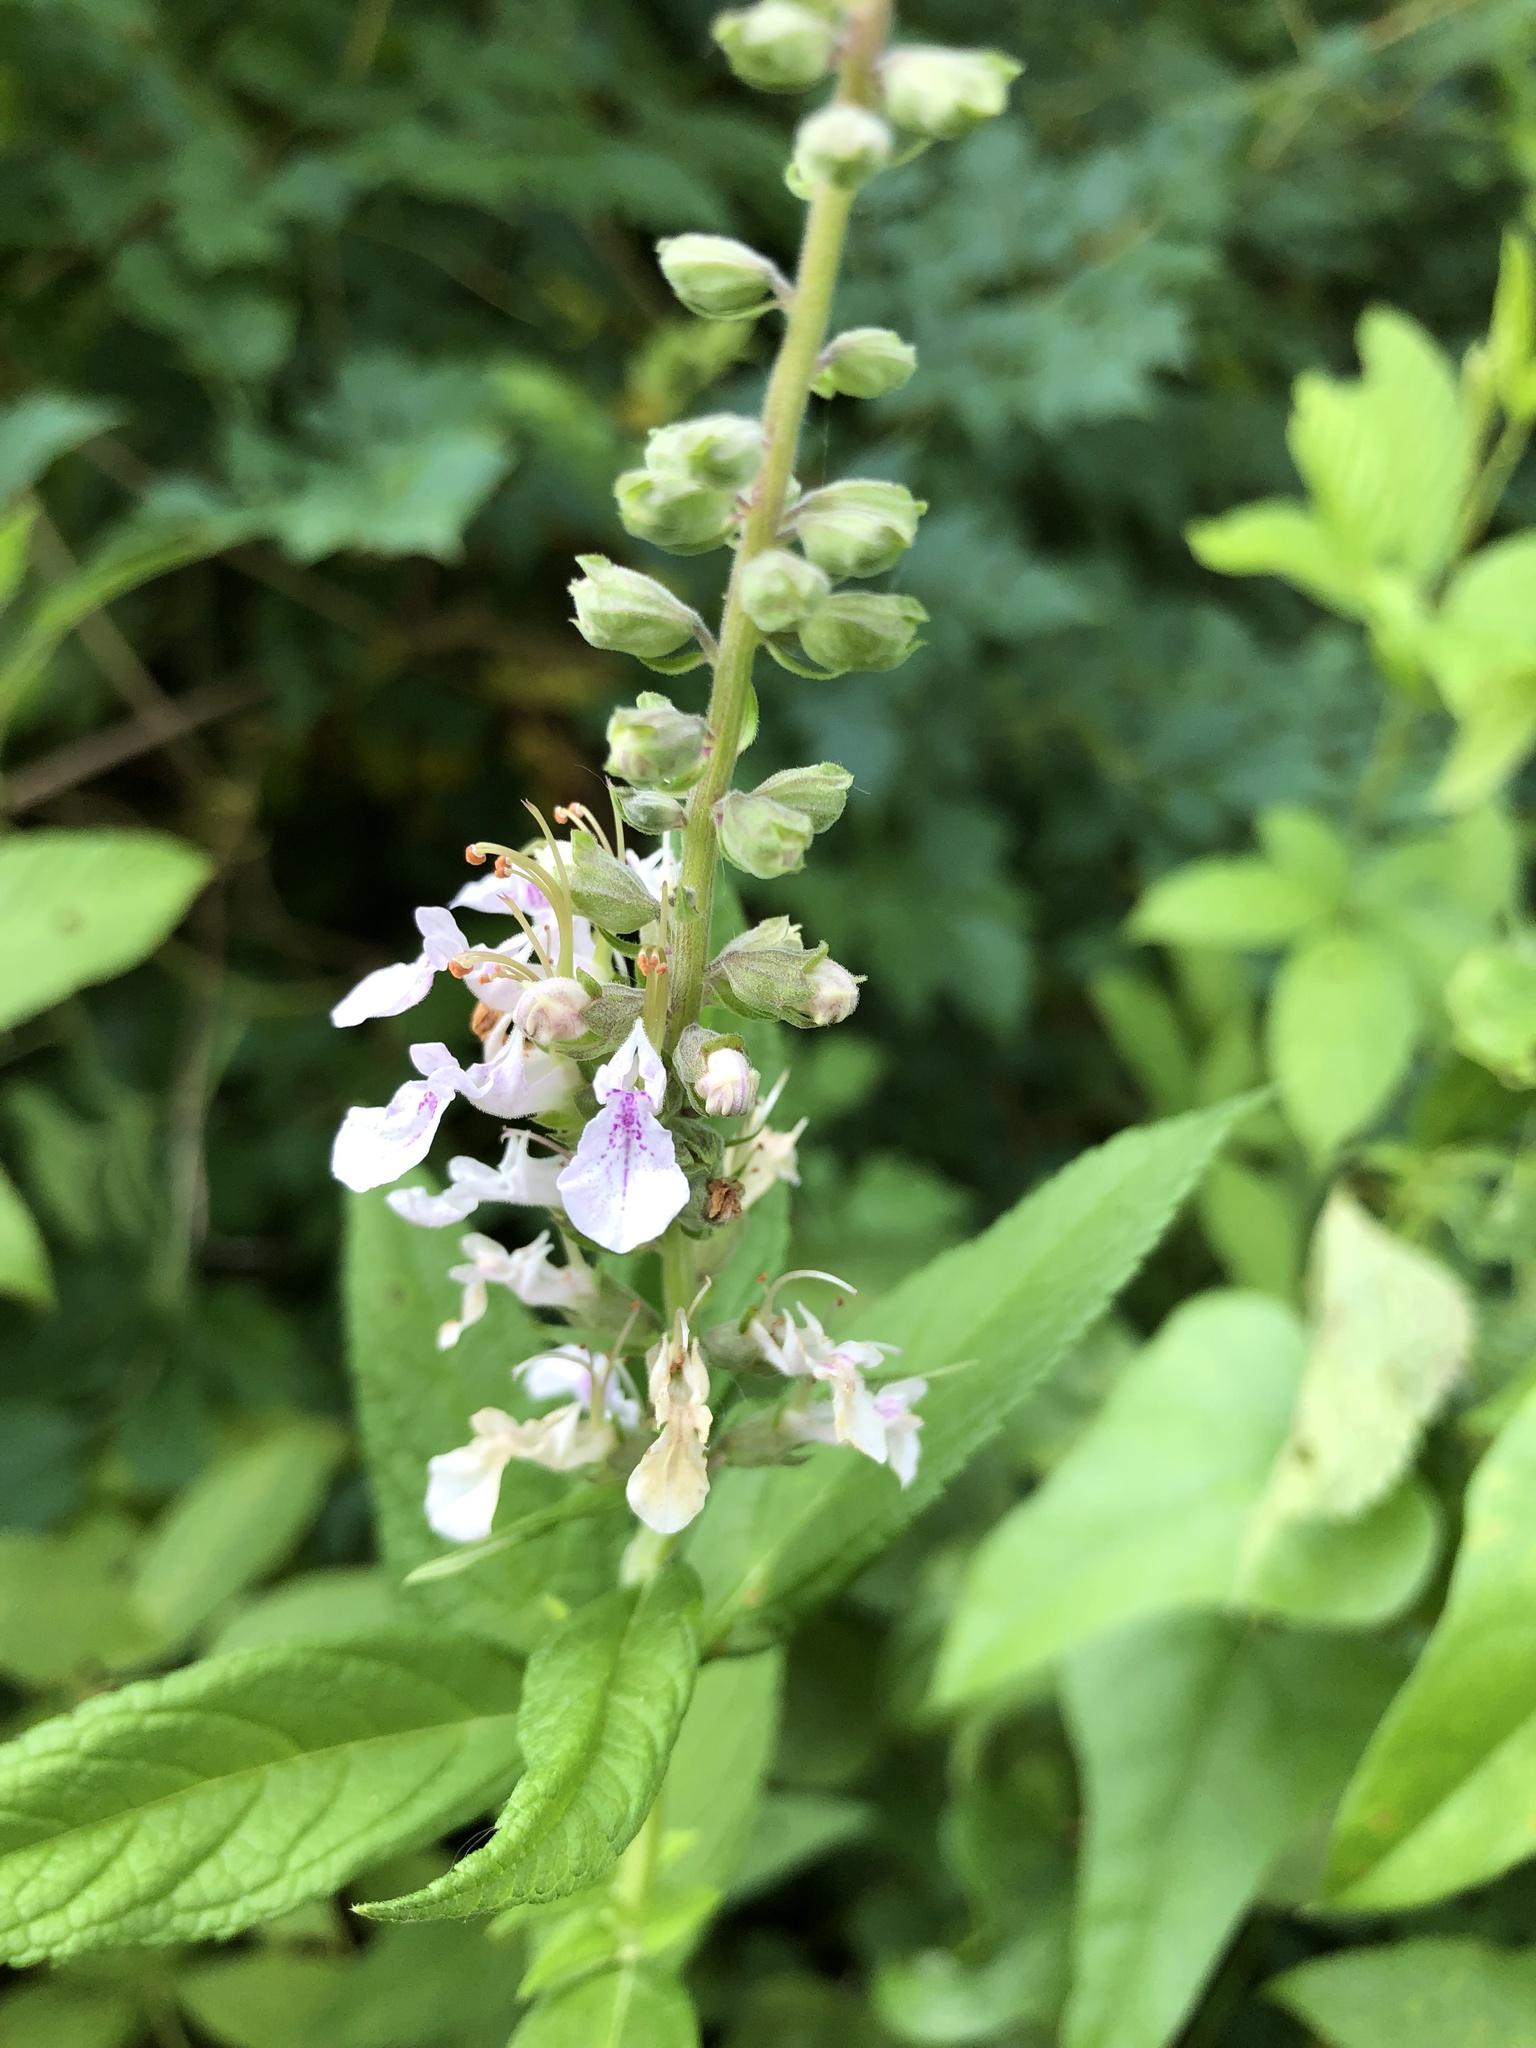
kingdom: Plantae
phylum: Tracheophyta
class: Magnoliopsida
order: Lamiales
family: Lamiaceae
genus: Teucrium
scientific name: Teucrium canadense
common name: American germander
